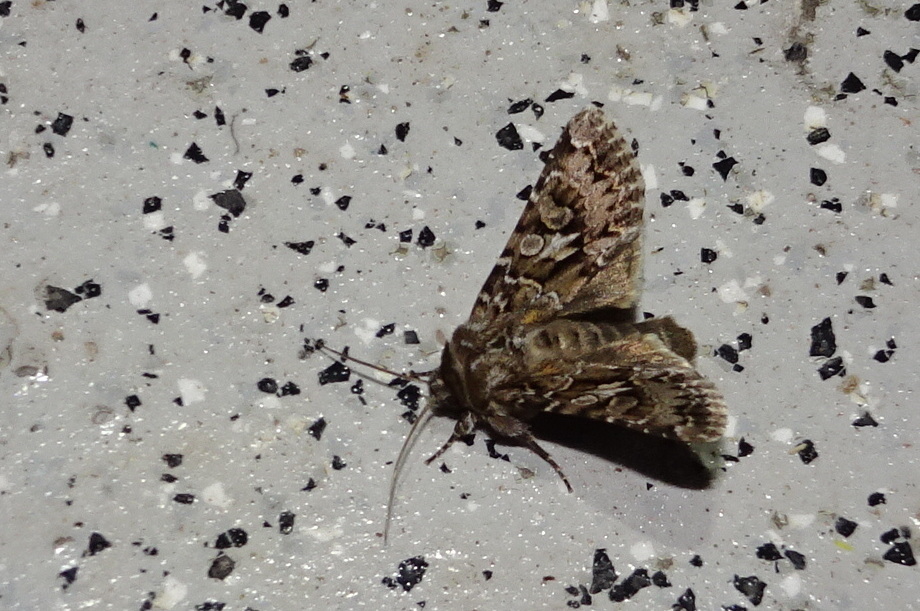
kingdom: Animalia
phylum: Arthropoda
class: Insecta
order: Lepidoptera
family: Noctuidae
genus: Hada
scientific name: Hada plebeja
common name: Shears
